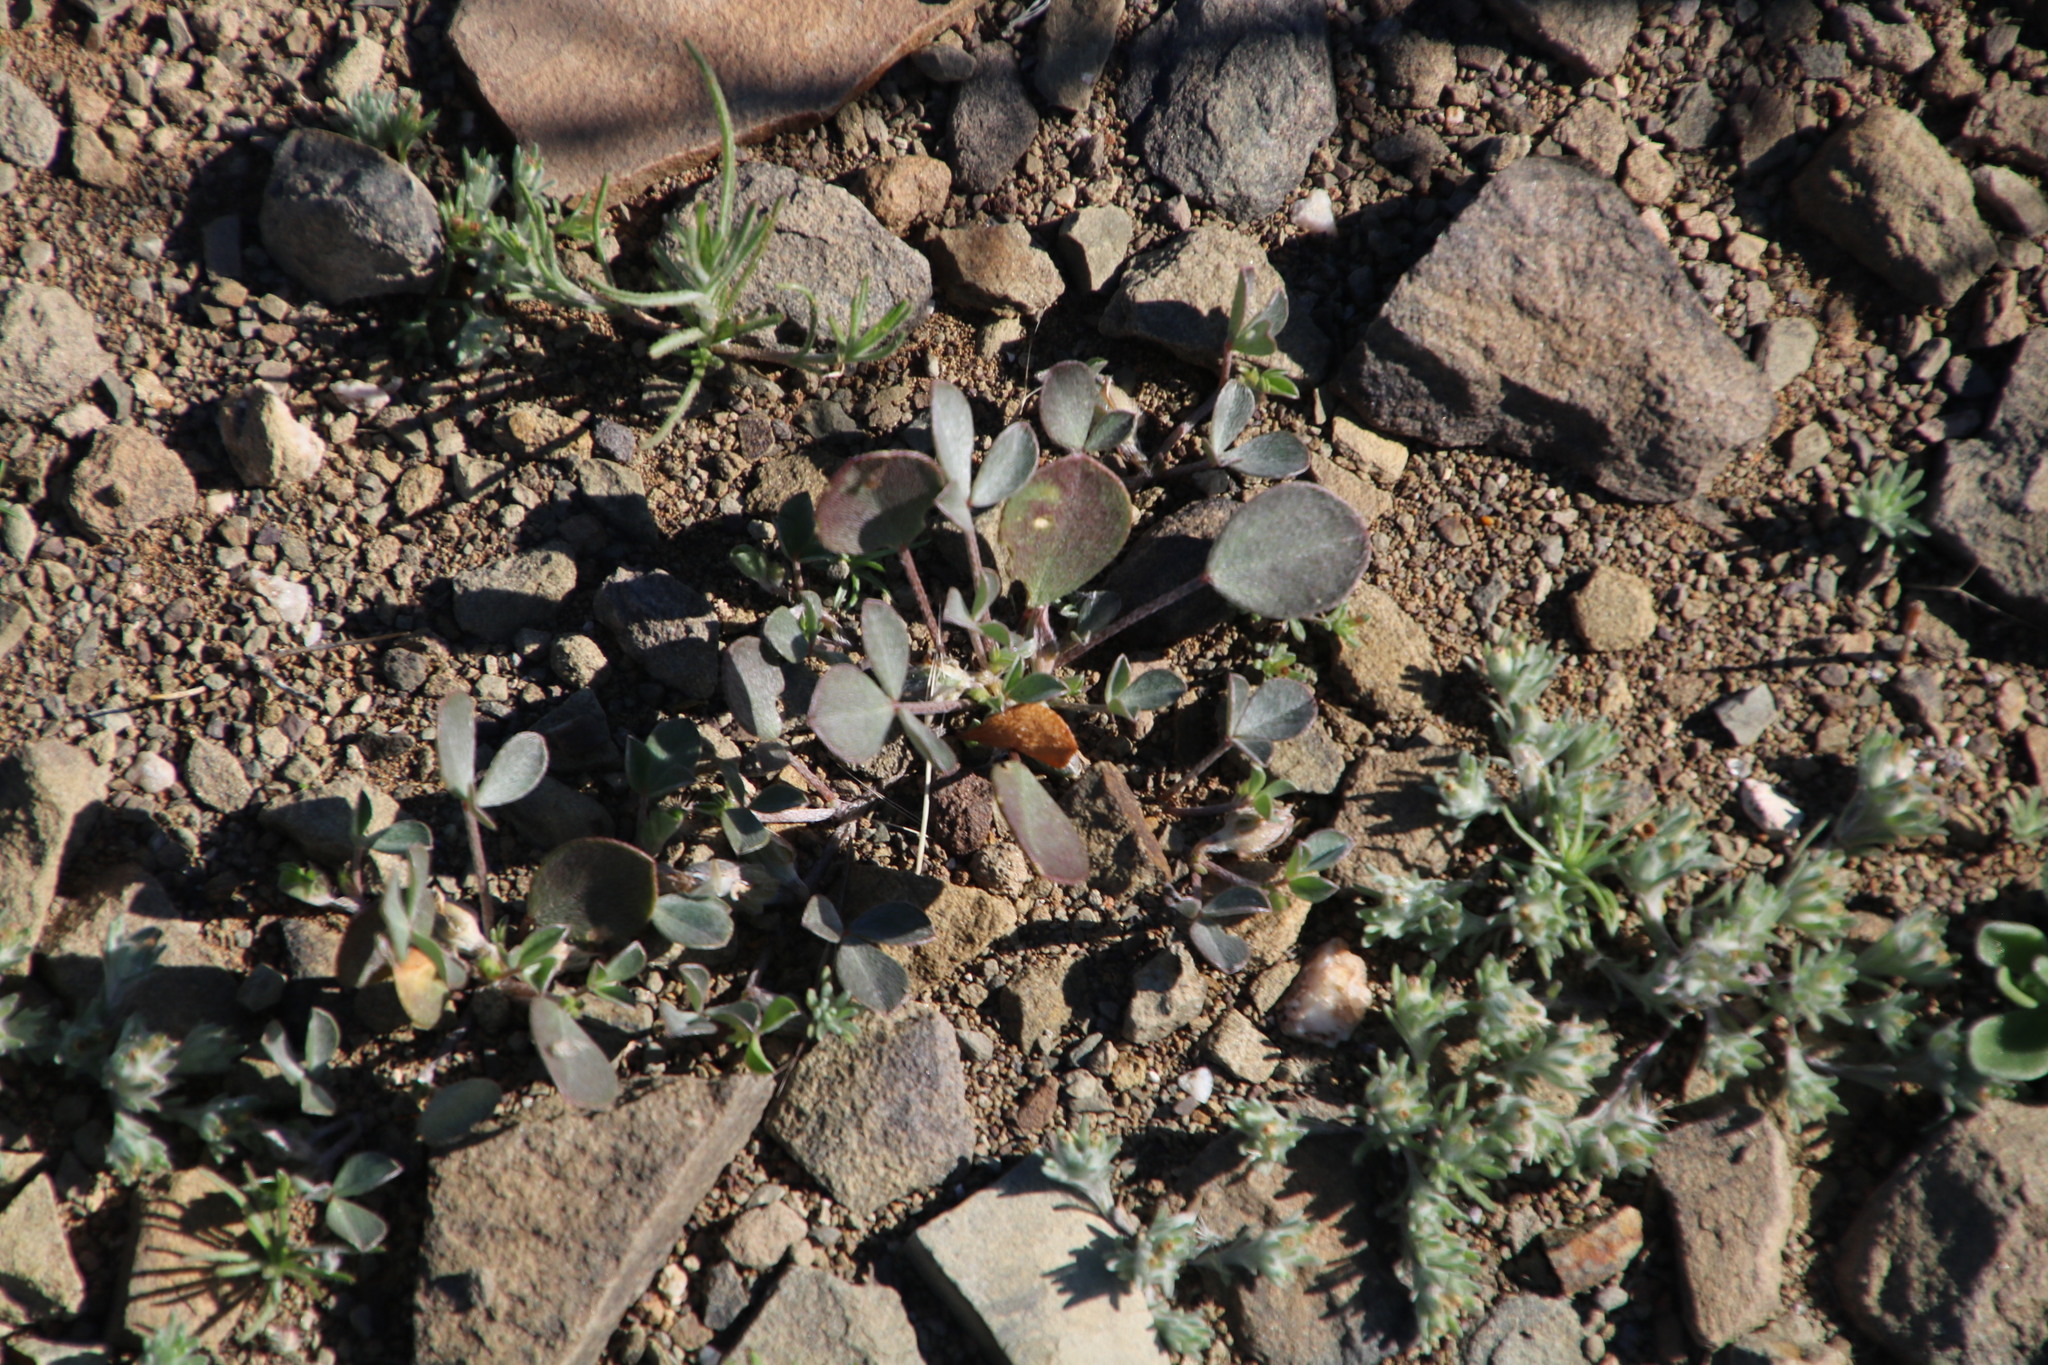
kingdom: Plantae
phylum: Tracheophyta
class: Magnoliopsida
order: Fabales
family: Fabaceae
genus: Indigastrum
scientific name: Indigastrum niveum
